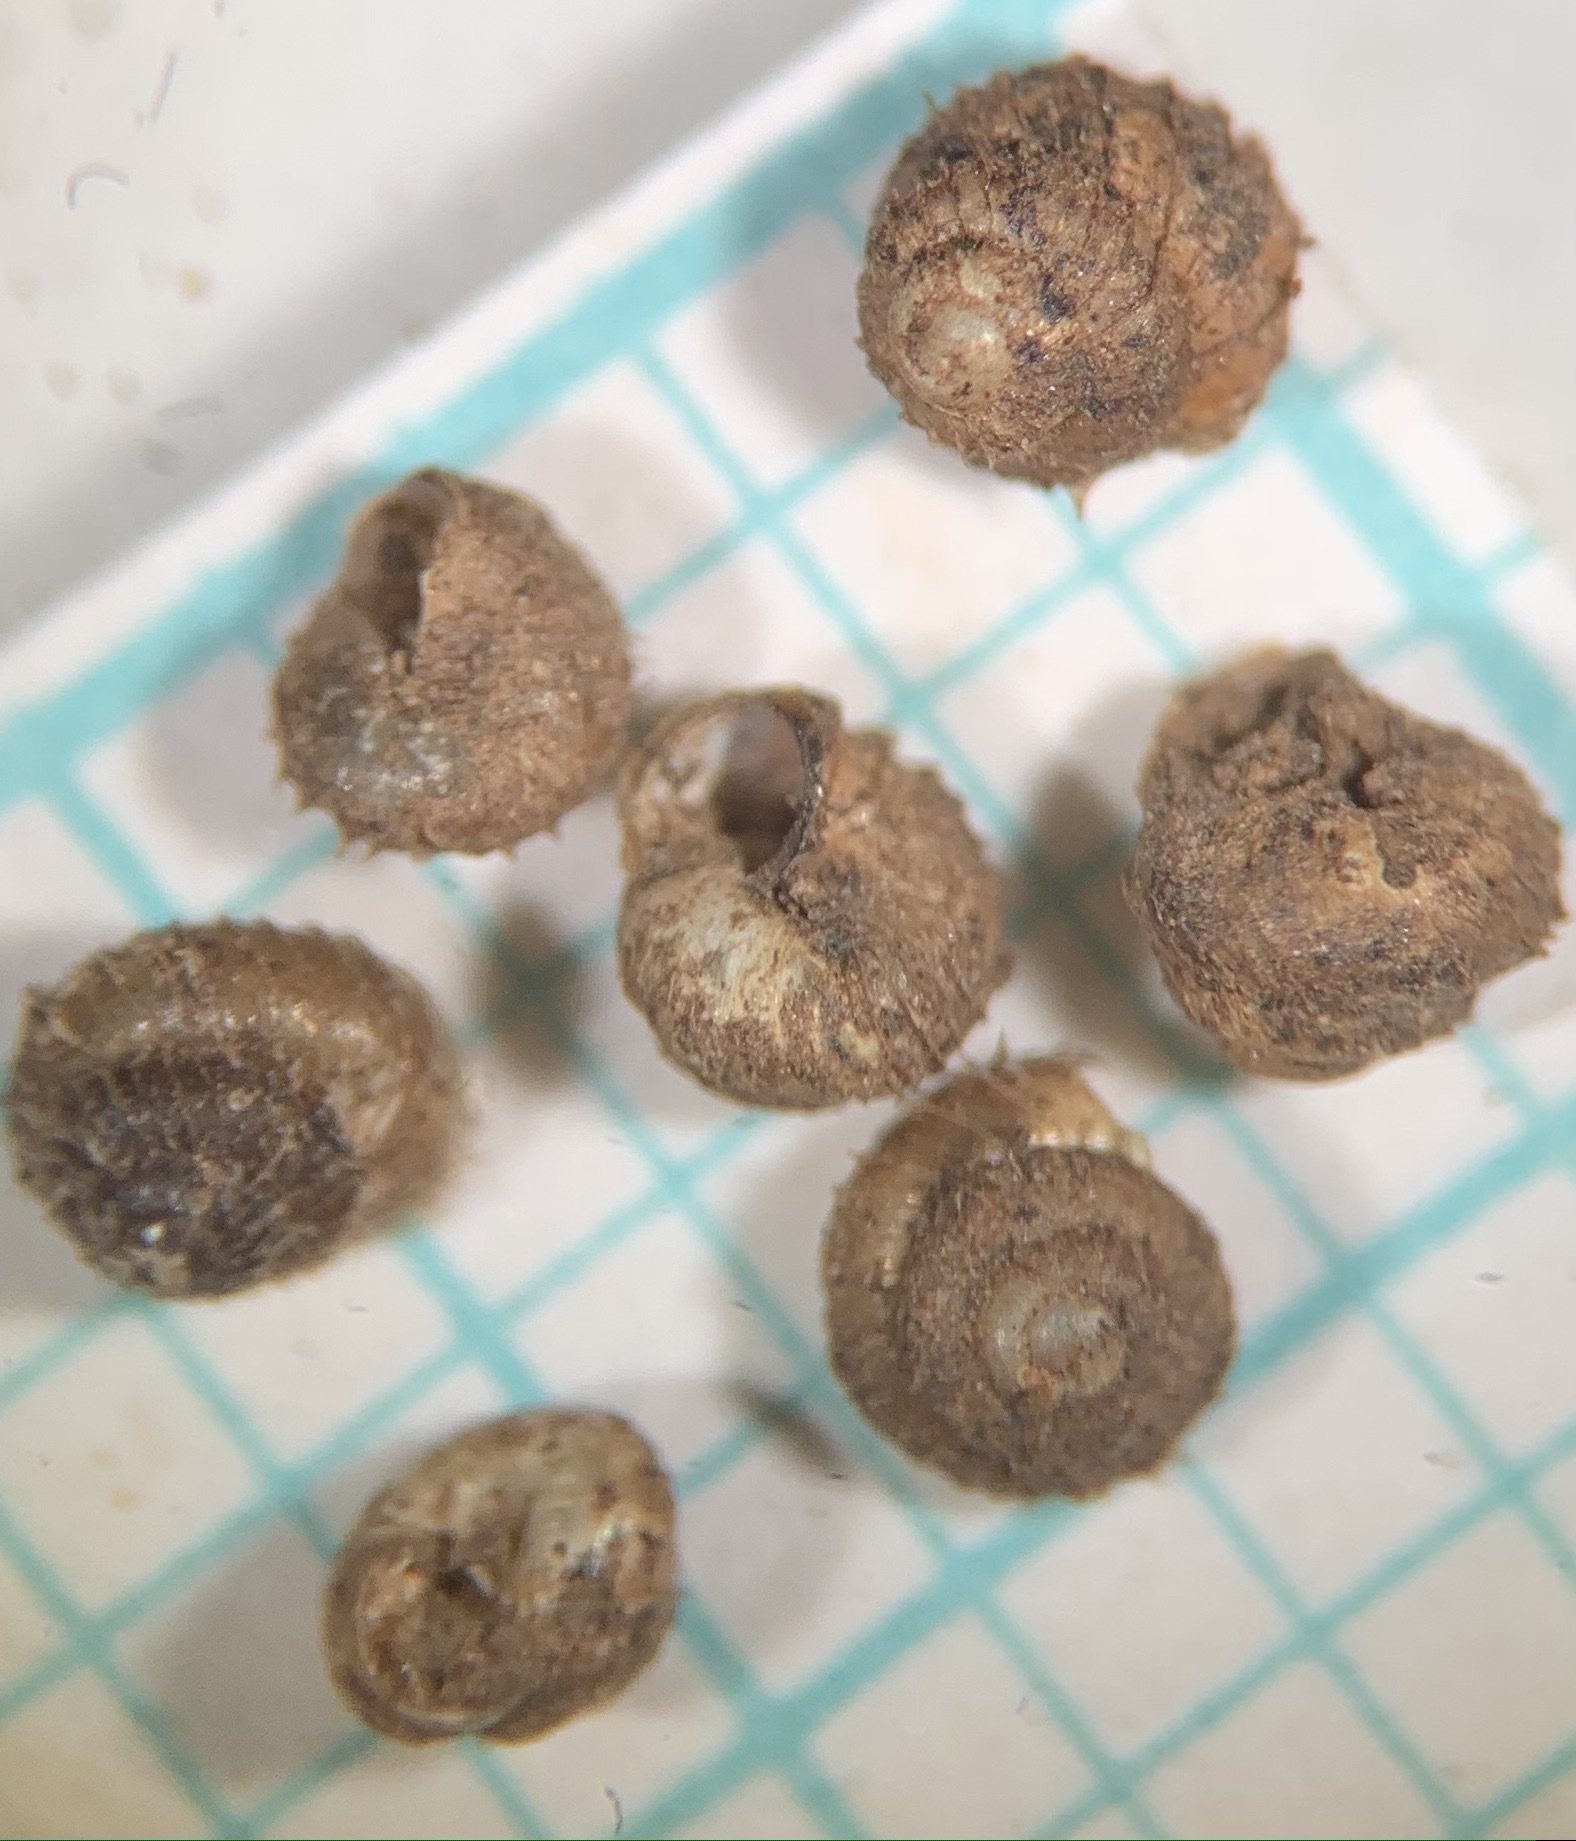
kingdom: Animalia
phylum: Mollusca
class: Gastropoda
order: Stylommatophora
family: Valloniidae
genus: Acanthinula
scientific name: Acanthinula aculeata
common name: Prickly snail
